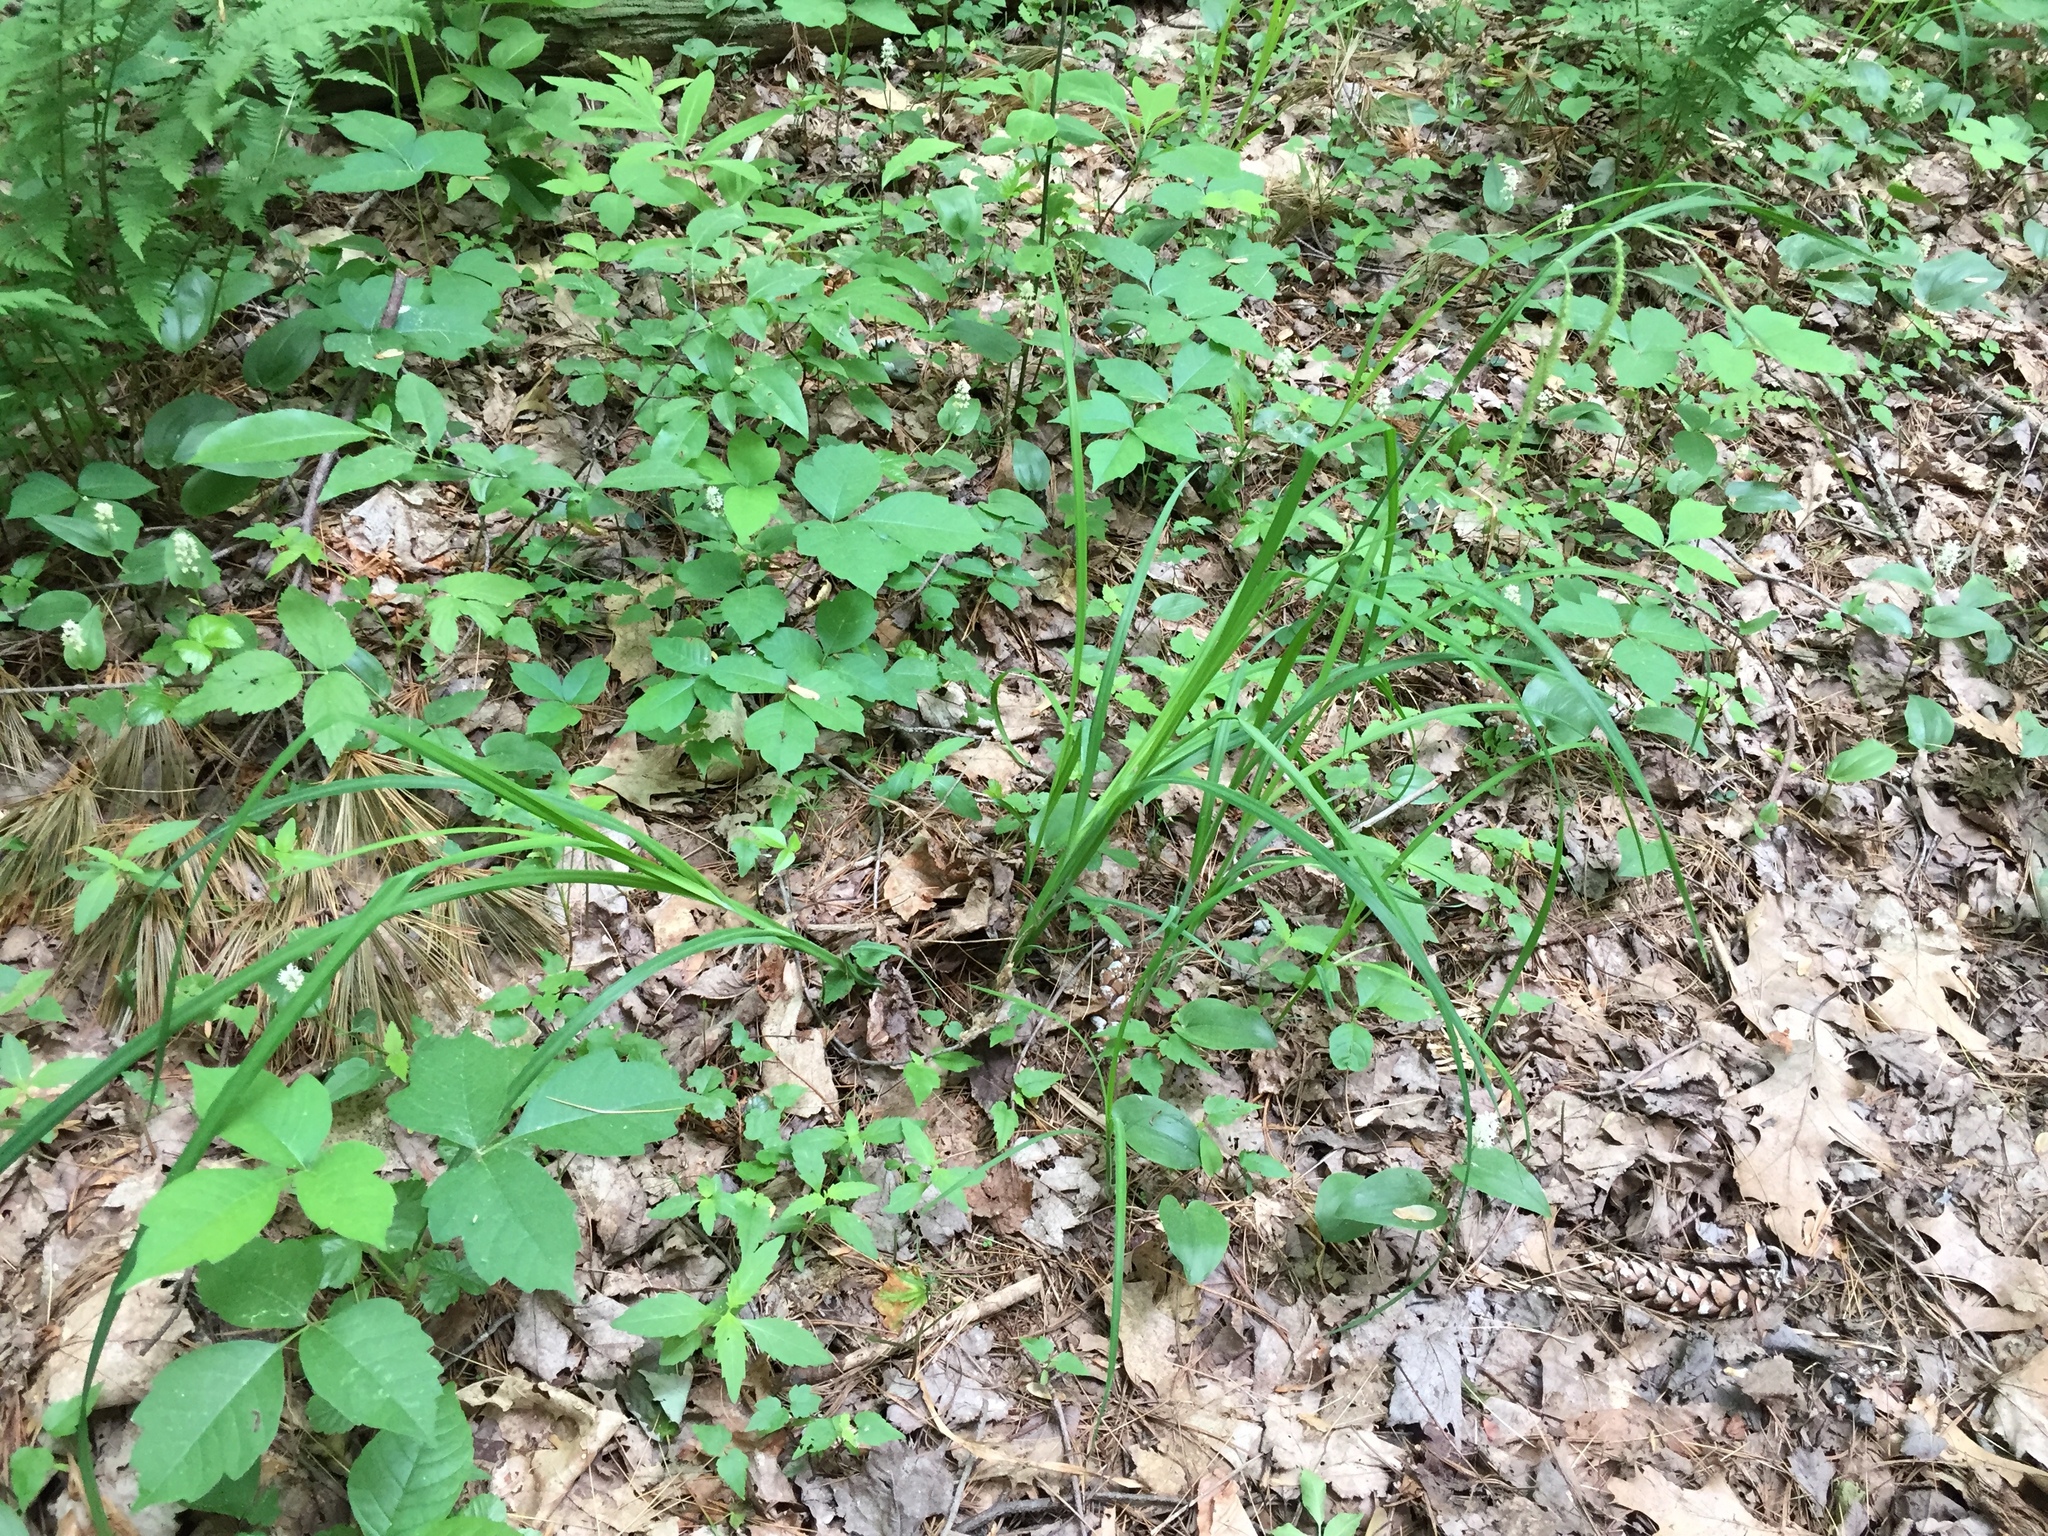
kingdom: Plantae
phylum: Tracheophyta
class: Liliopsida
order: Poales
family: Cyperaceae
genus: Carex
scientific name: Carex crinita
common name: Fringed sedge
